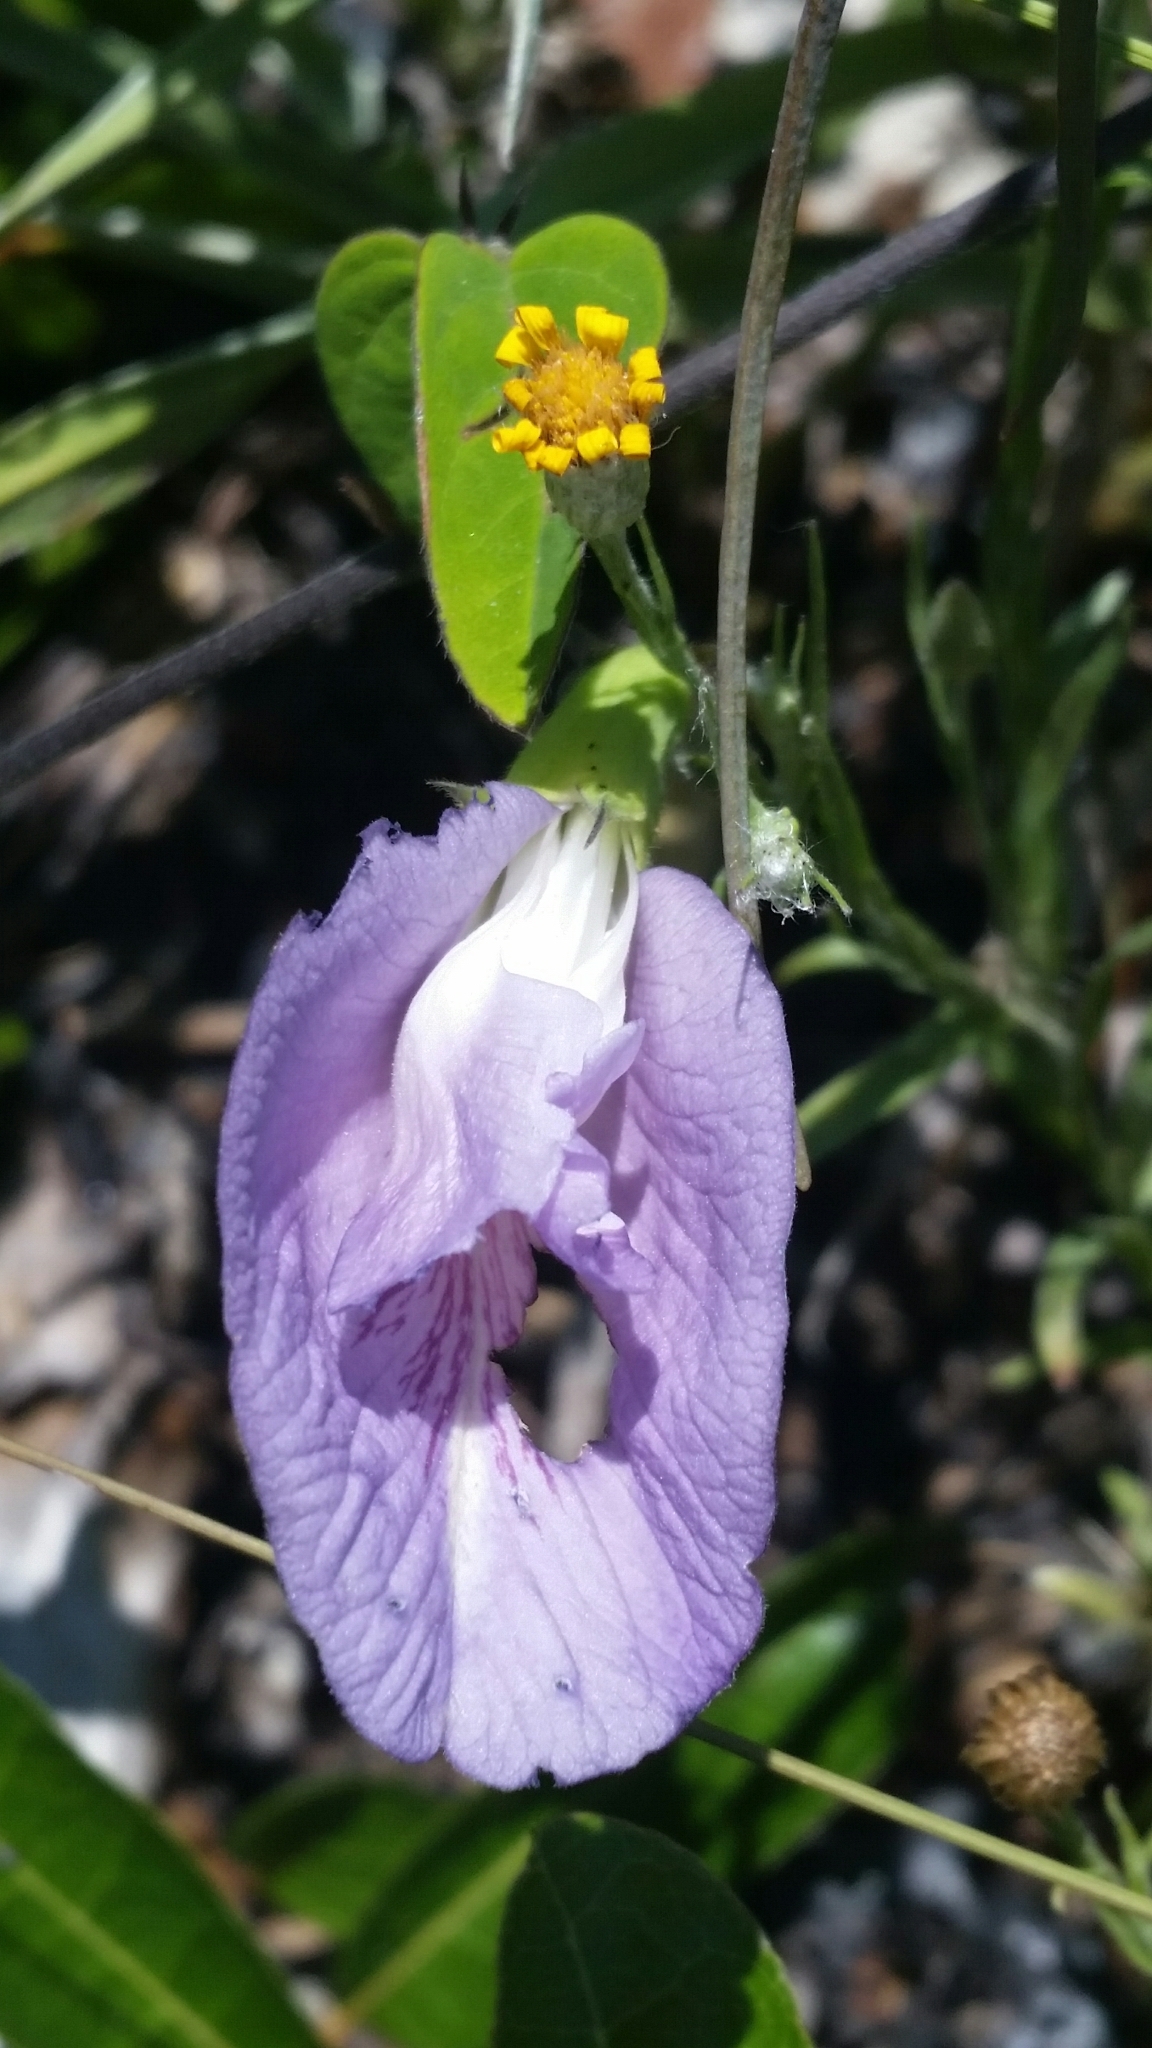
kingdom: Plantae
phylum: Tracheophyta
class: Magnoliopsida
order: Fabales
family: Fabaceae
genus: Clitoria
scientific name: Clitoria mariana
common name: Butterfly-pea
